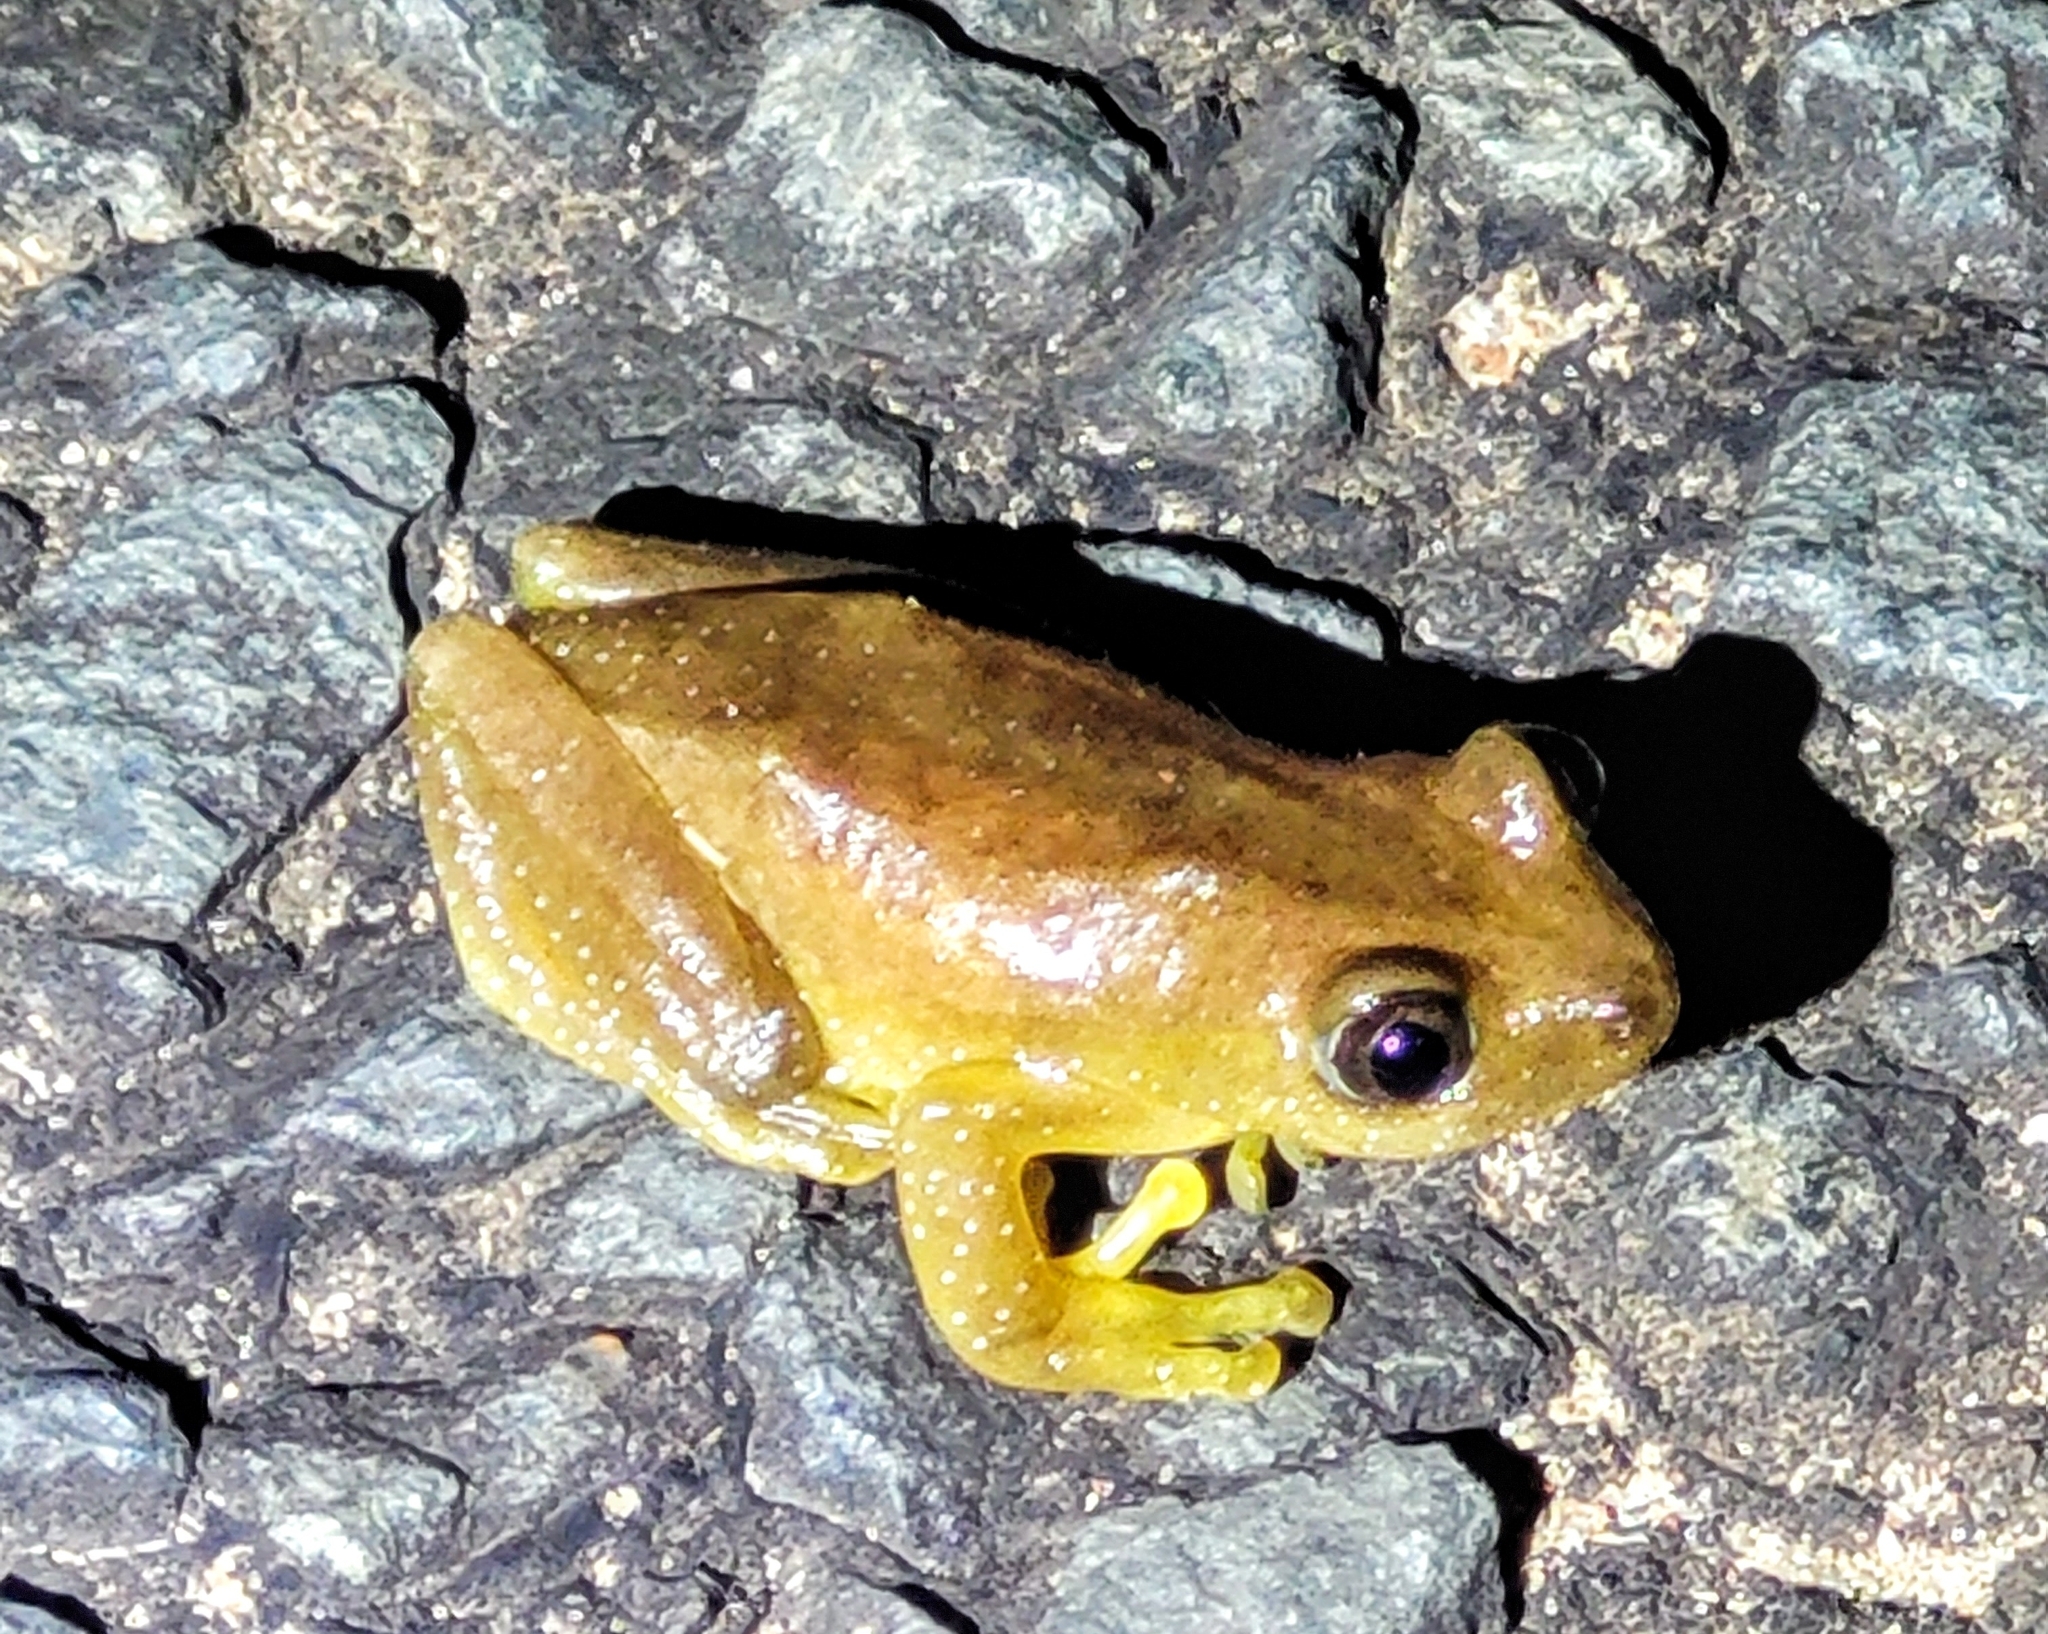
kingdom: Animalia
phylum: Chordata
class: Amphibia
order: Anura
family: Hyperoliidae
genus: Afrixalus
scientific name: Afrixalus fornasini
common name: Fornasini's spiny reed frog
